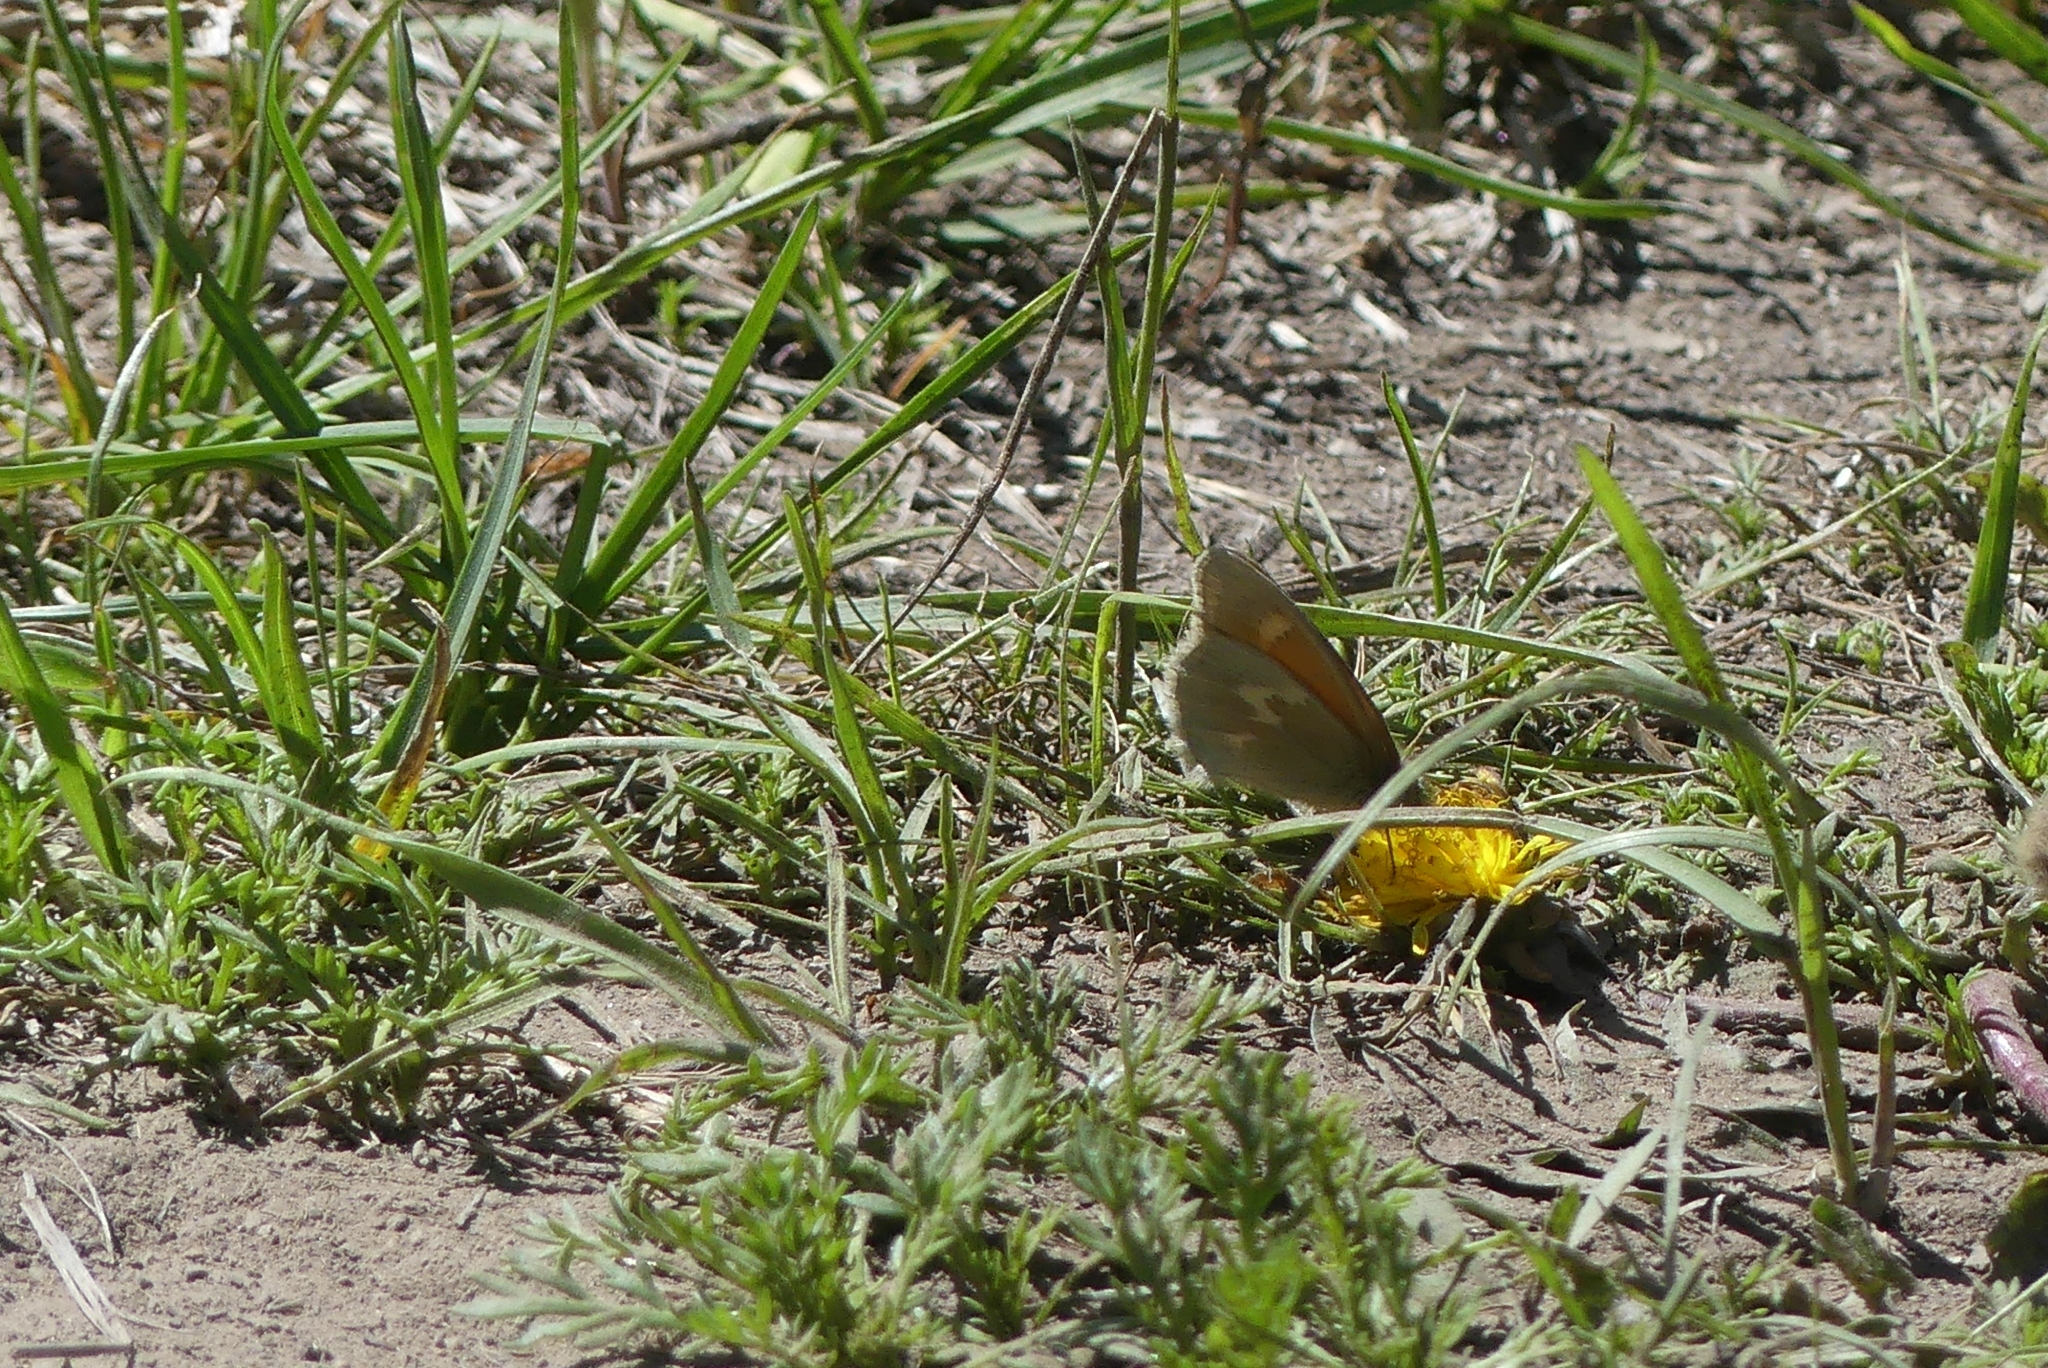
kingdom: Animalia
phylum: Arthropoda
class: Insecta
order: Lepidoptera
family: Nymphalidae
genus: Coenonympha
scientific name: Coenonympha california
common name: Common ringlet
